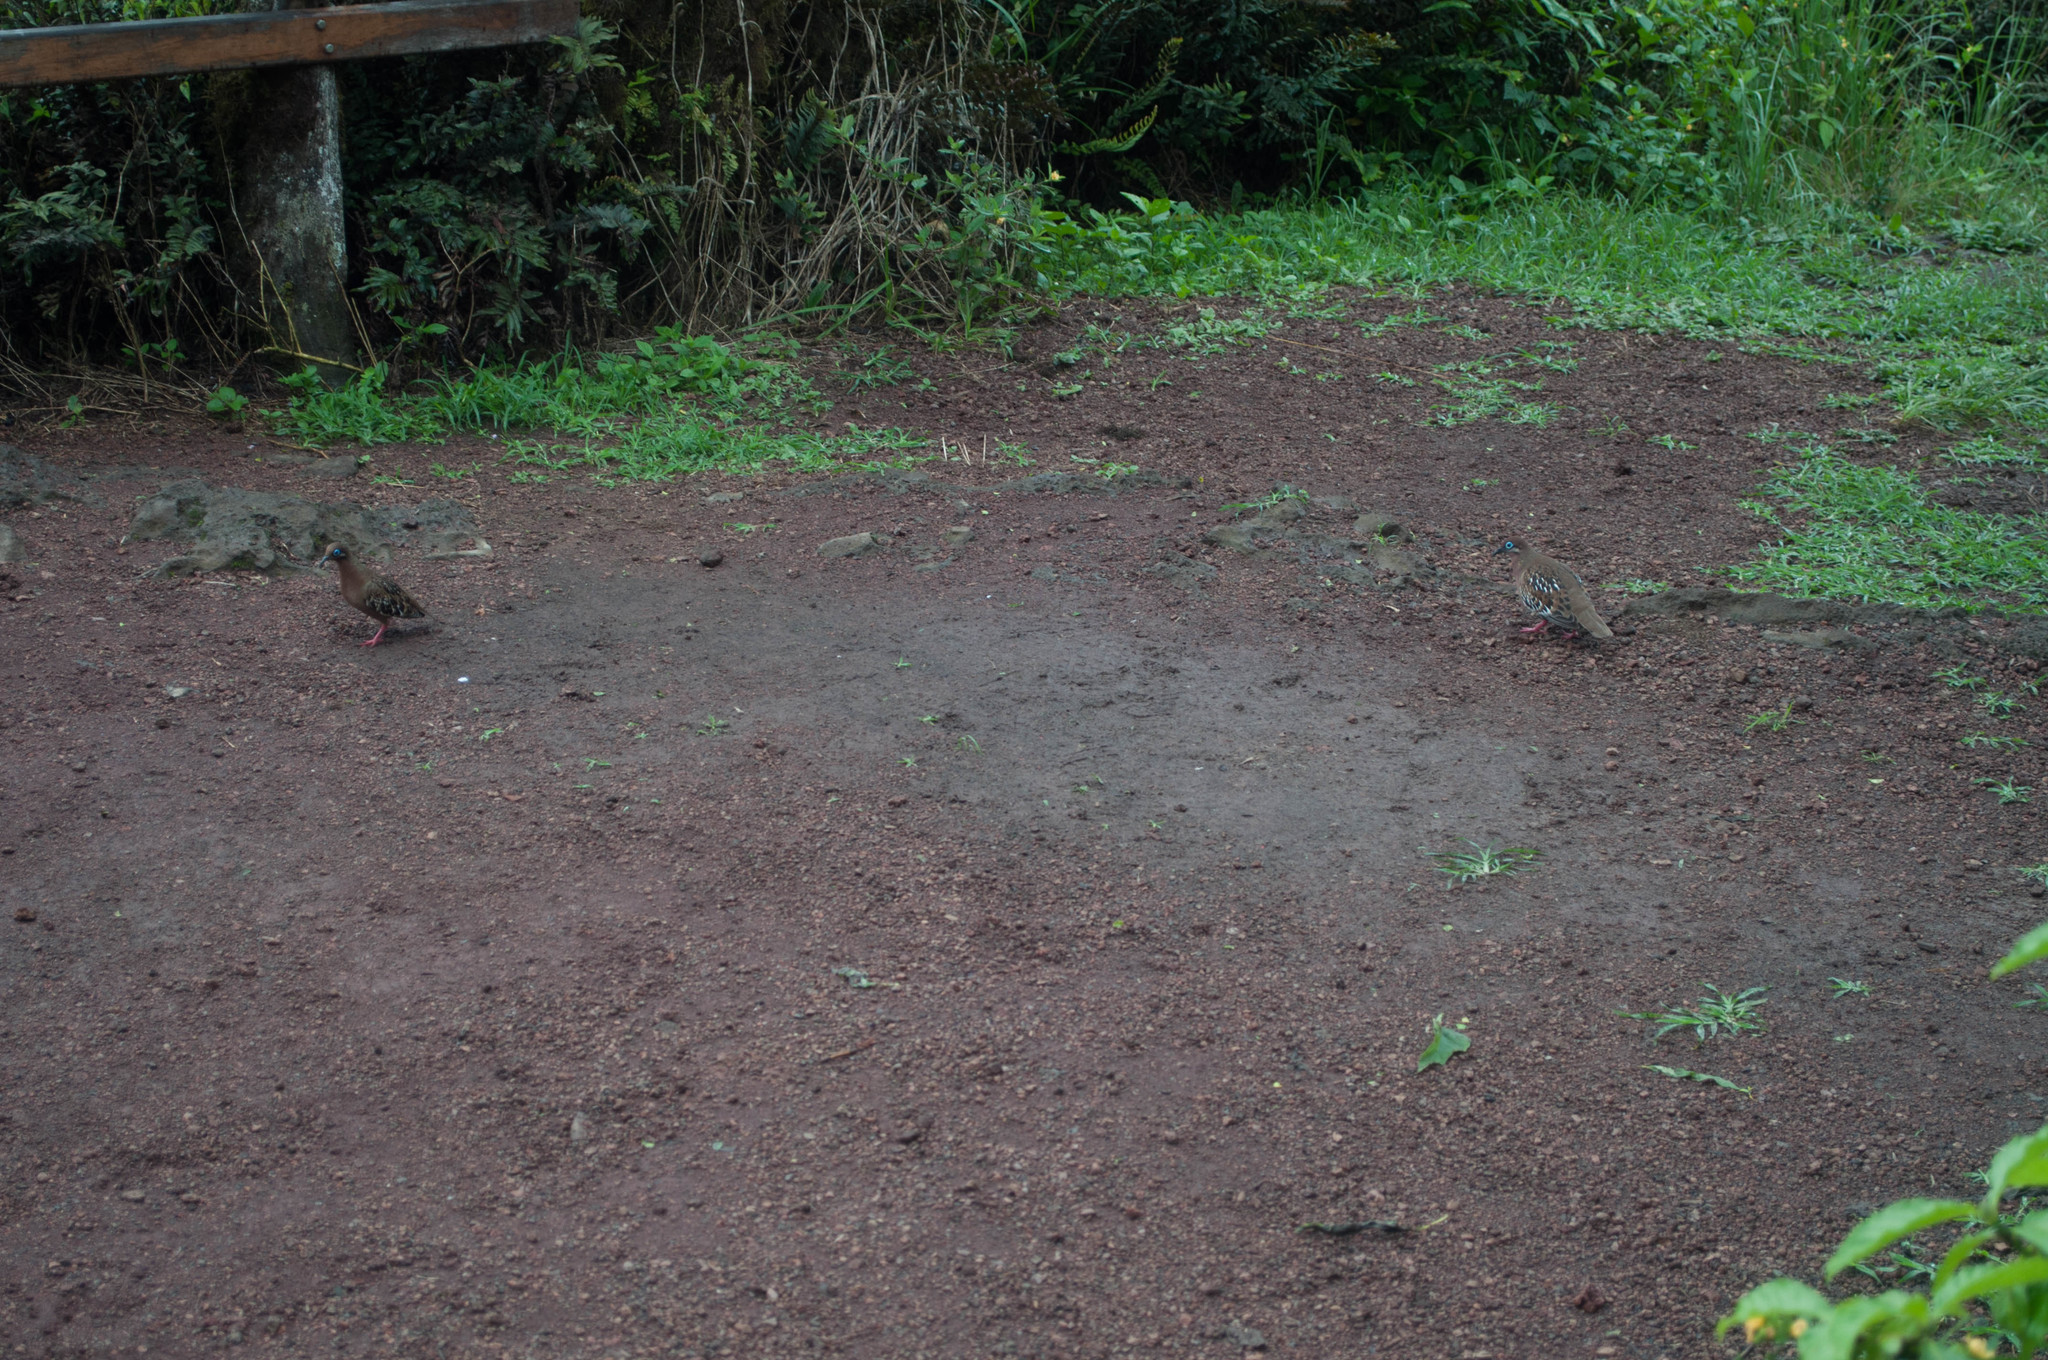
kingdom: Animalia
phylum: Chordata
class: Aves
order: Columbiformes
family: Columbidae
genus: Zenaida
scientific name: Zenaida galapagoensis
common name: Galapagos dove
